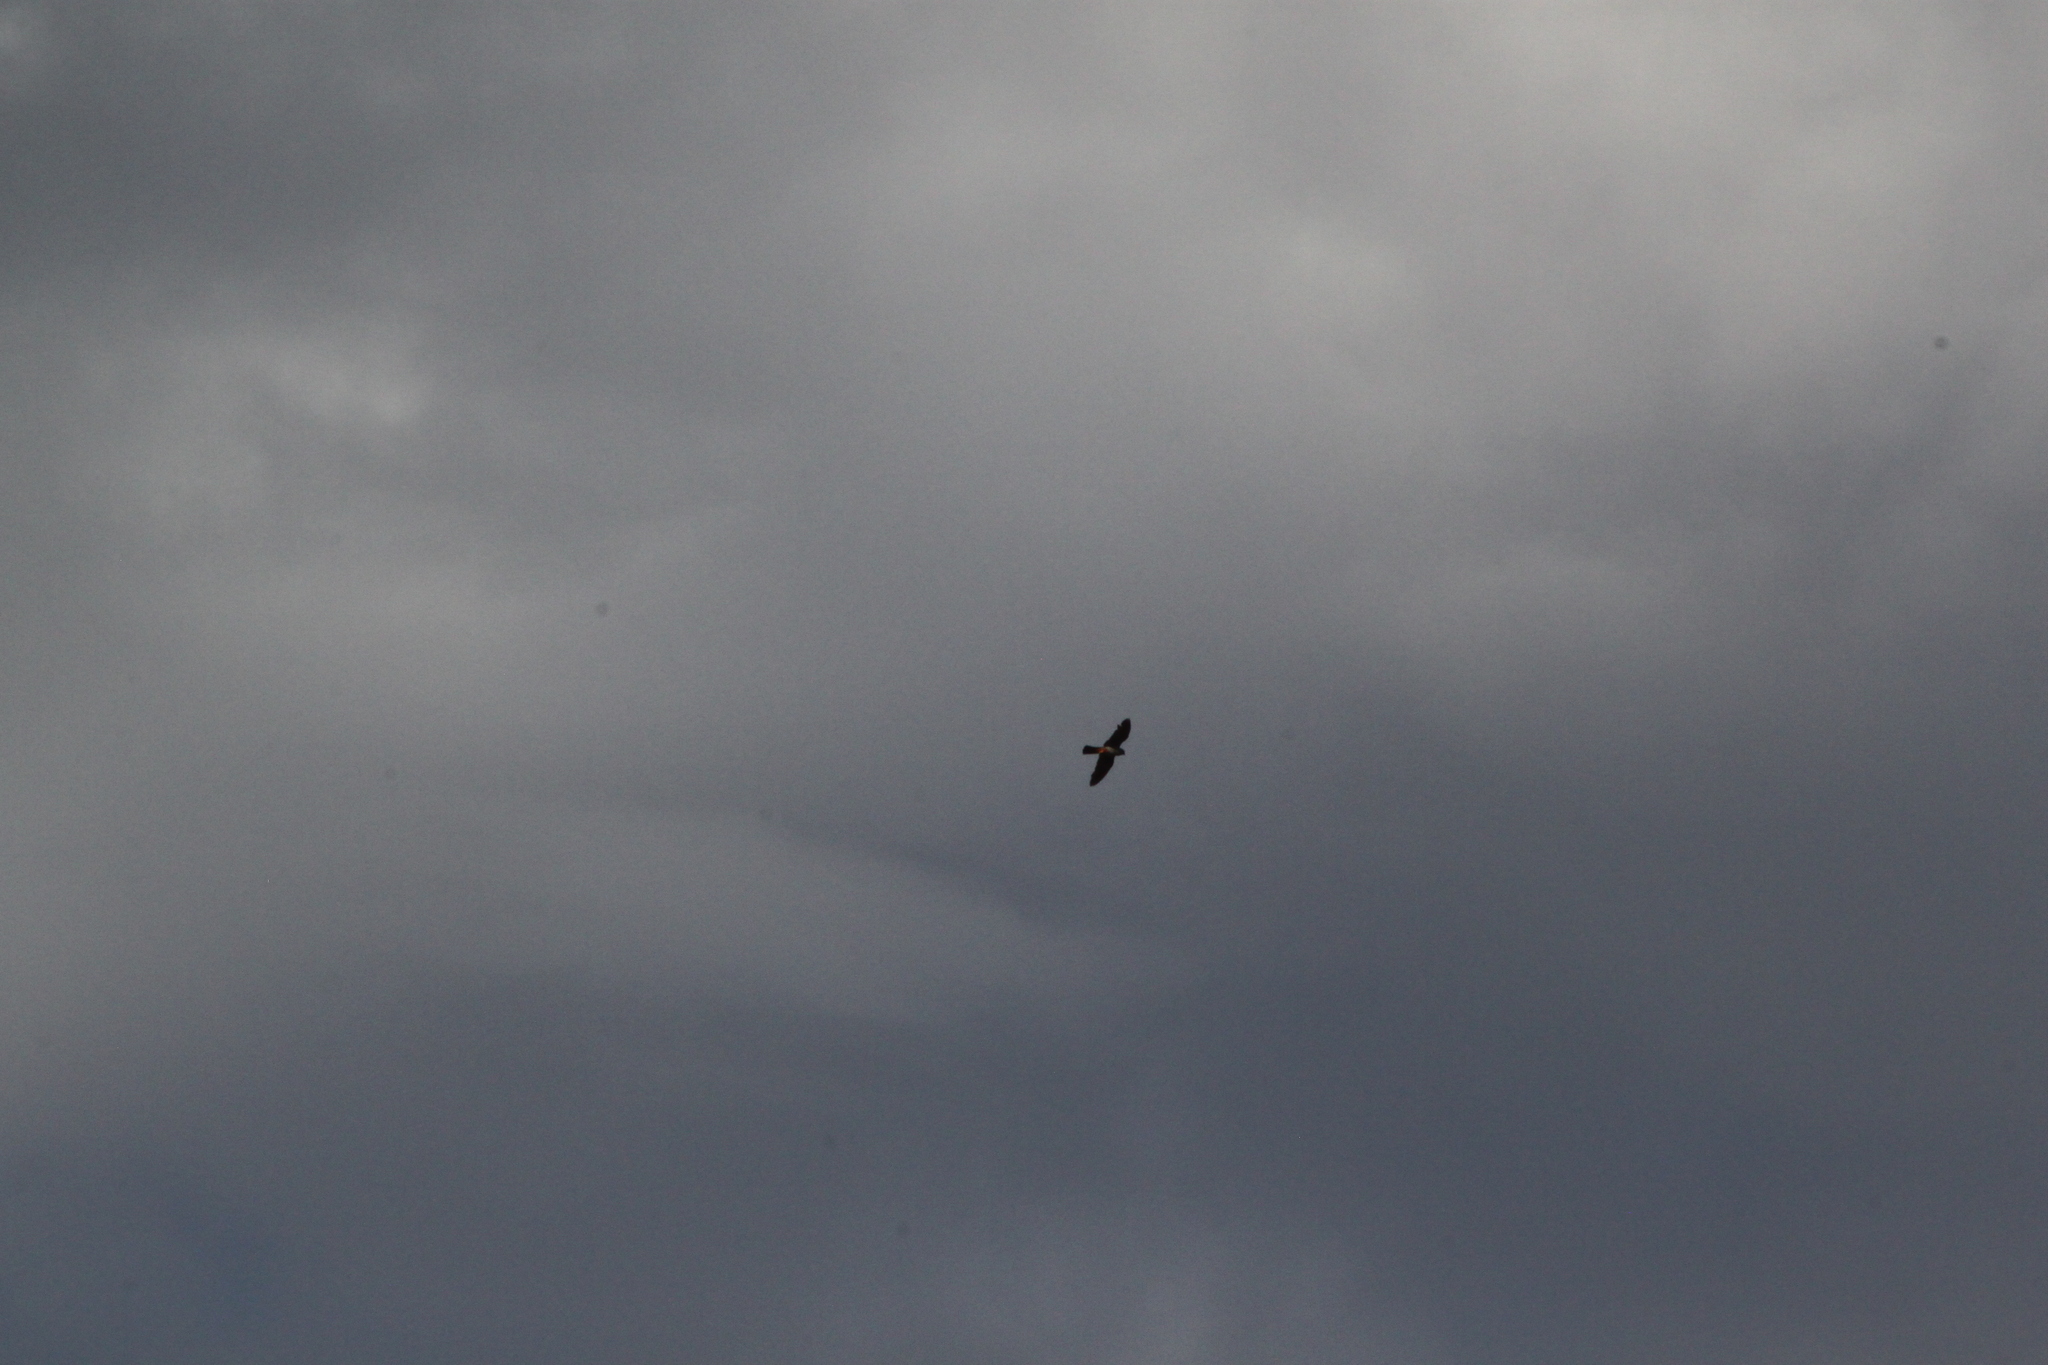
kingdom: Animalia
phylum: Chordata
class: Aves
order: Falconiformes
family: Falconidae
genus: Falco
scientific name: Falco vespertinus
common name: Red-footed falcon
